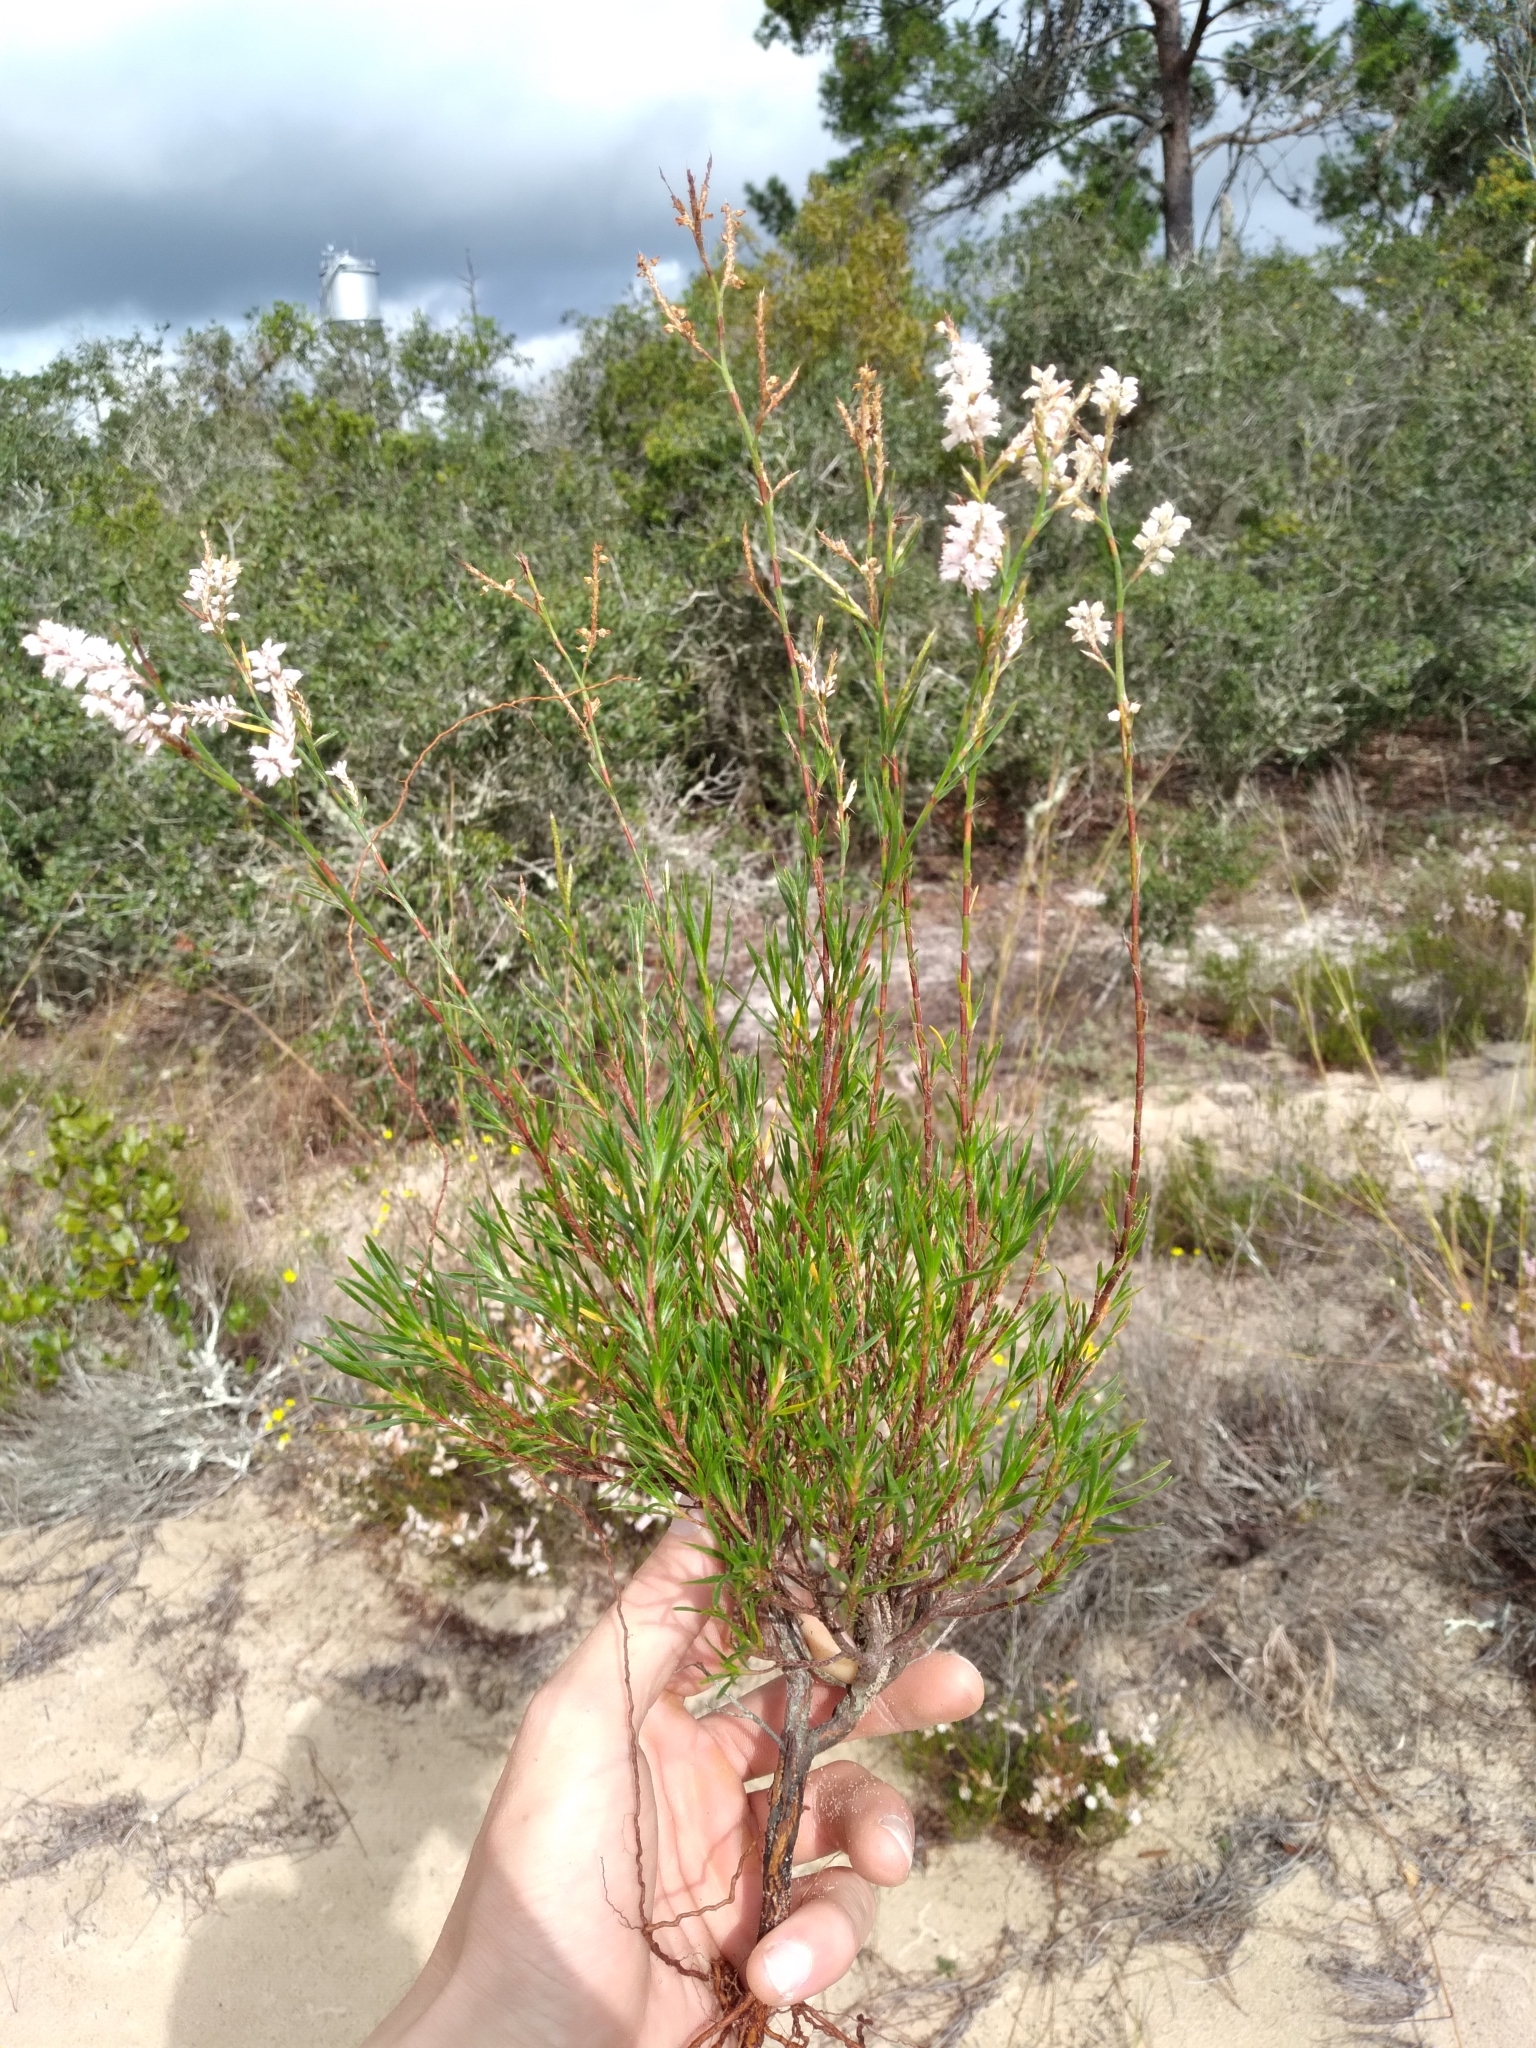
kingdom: Plantae
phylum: Tracheophyta
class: Magnoliopsida
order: Caryophyllales
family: Polygonaceae
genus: Polygonella
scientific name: Polygonella robusta
